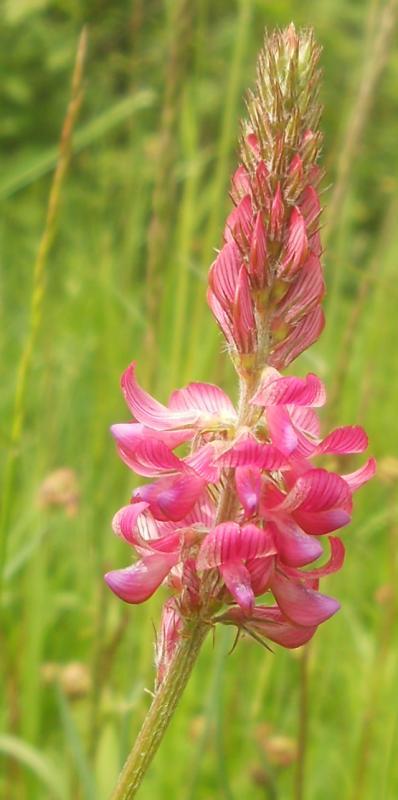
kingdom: Plantae
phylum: Tracheophyta
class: Magnoliopsida
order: Fabales
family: Fabaceae
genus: Onobrychis
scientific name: Onobrychis viciifolia
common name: Sainfoin
